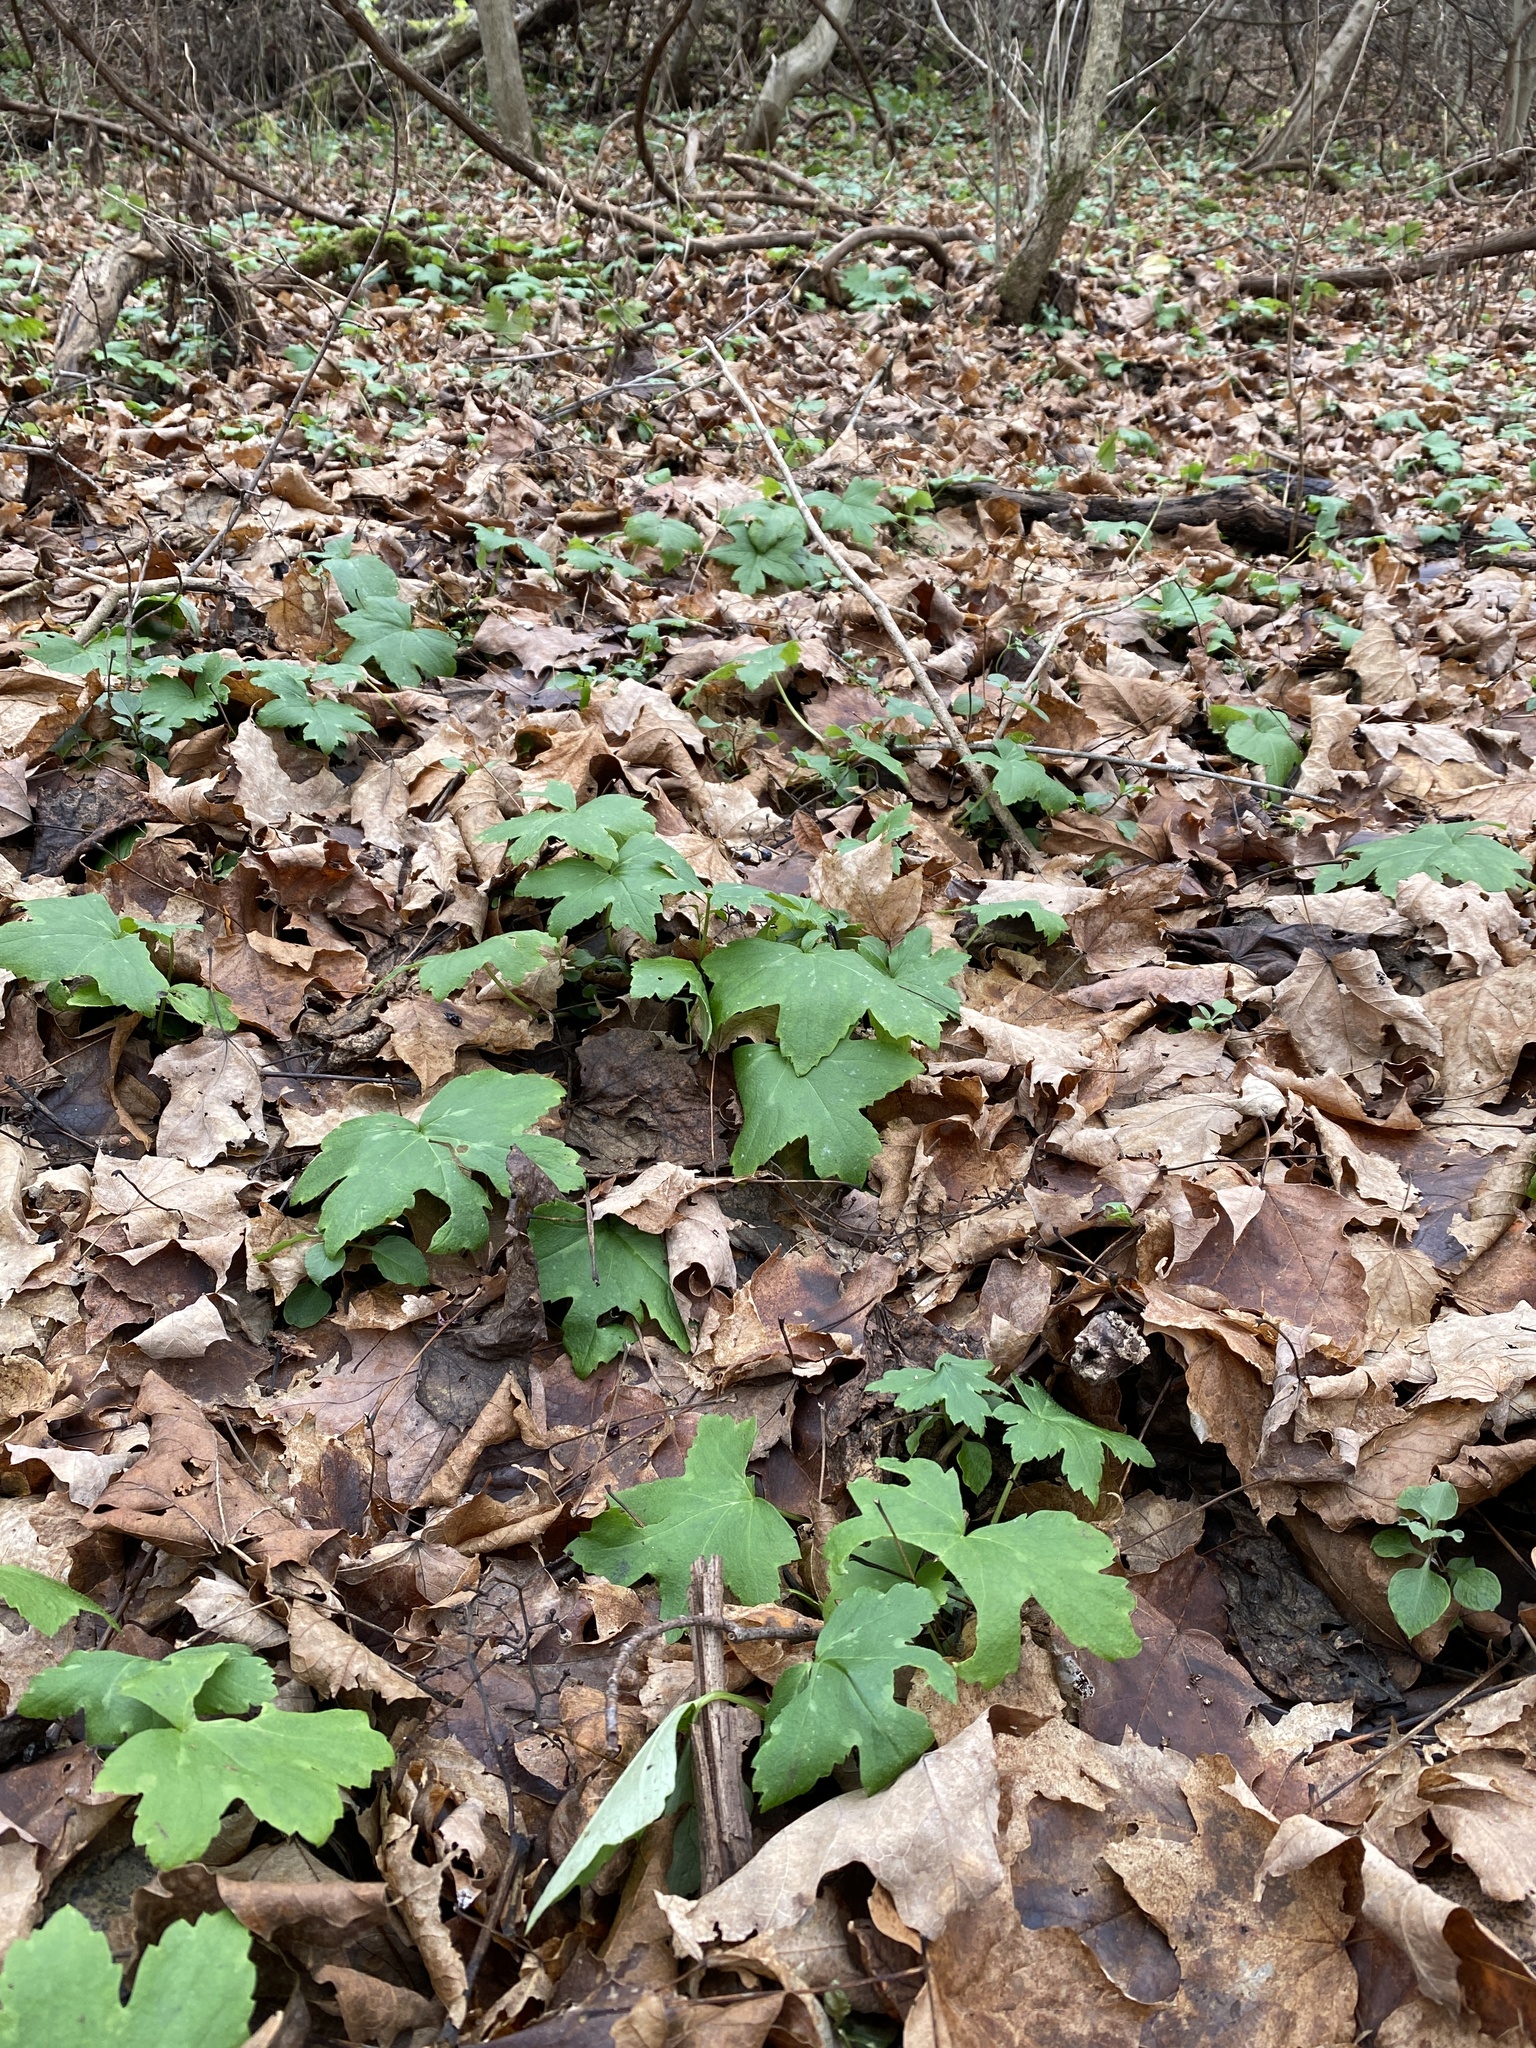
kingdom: Plantae
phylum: Tracheophyta
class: Magnoliopsida
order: Boraginales
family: Hydrophyllaceae
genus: Hydrophyllum
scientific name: Hydrophyllum canadense
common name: Canada waterleaf
